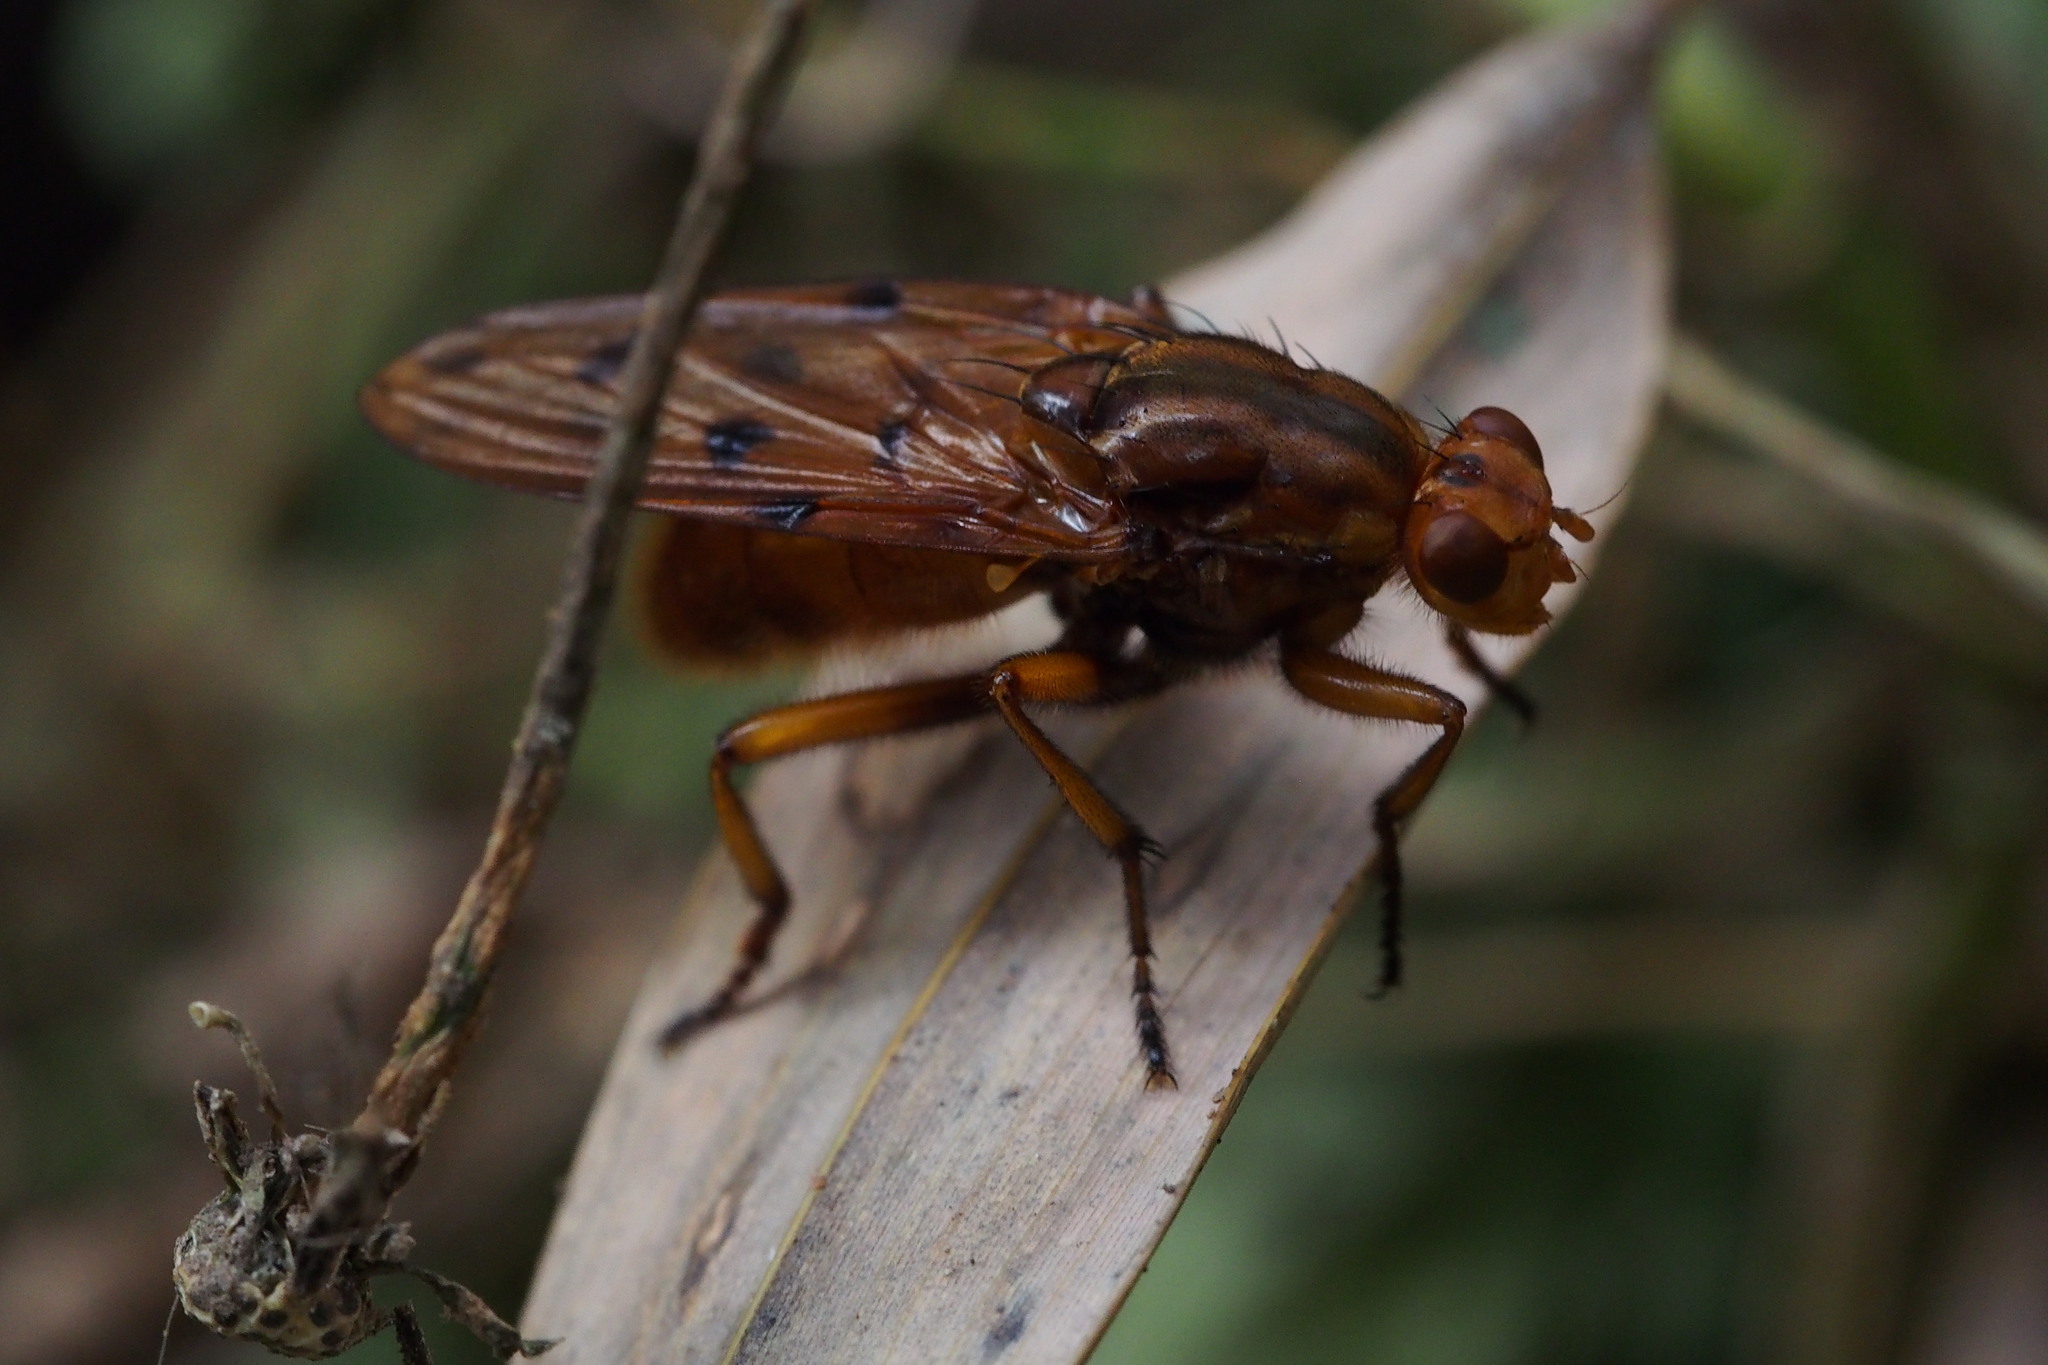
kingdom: Animalia
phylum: Arthropoda
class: Insecta
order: Diptera
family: Dryomyzidae
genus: Dryomyza
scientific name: Dryomyza formosa
